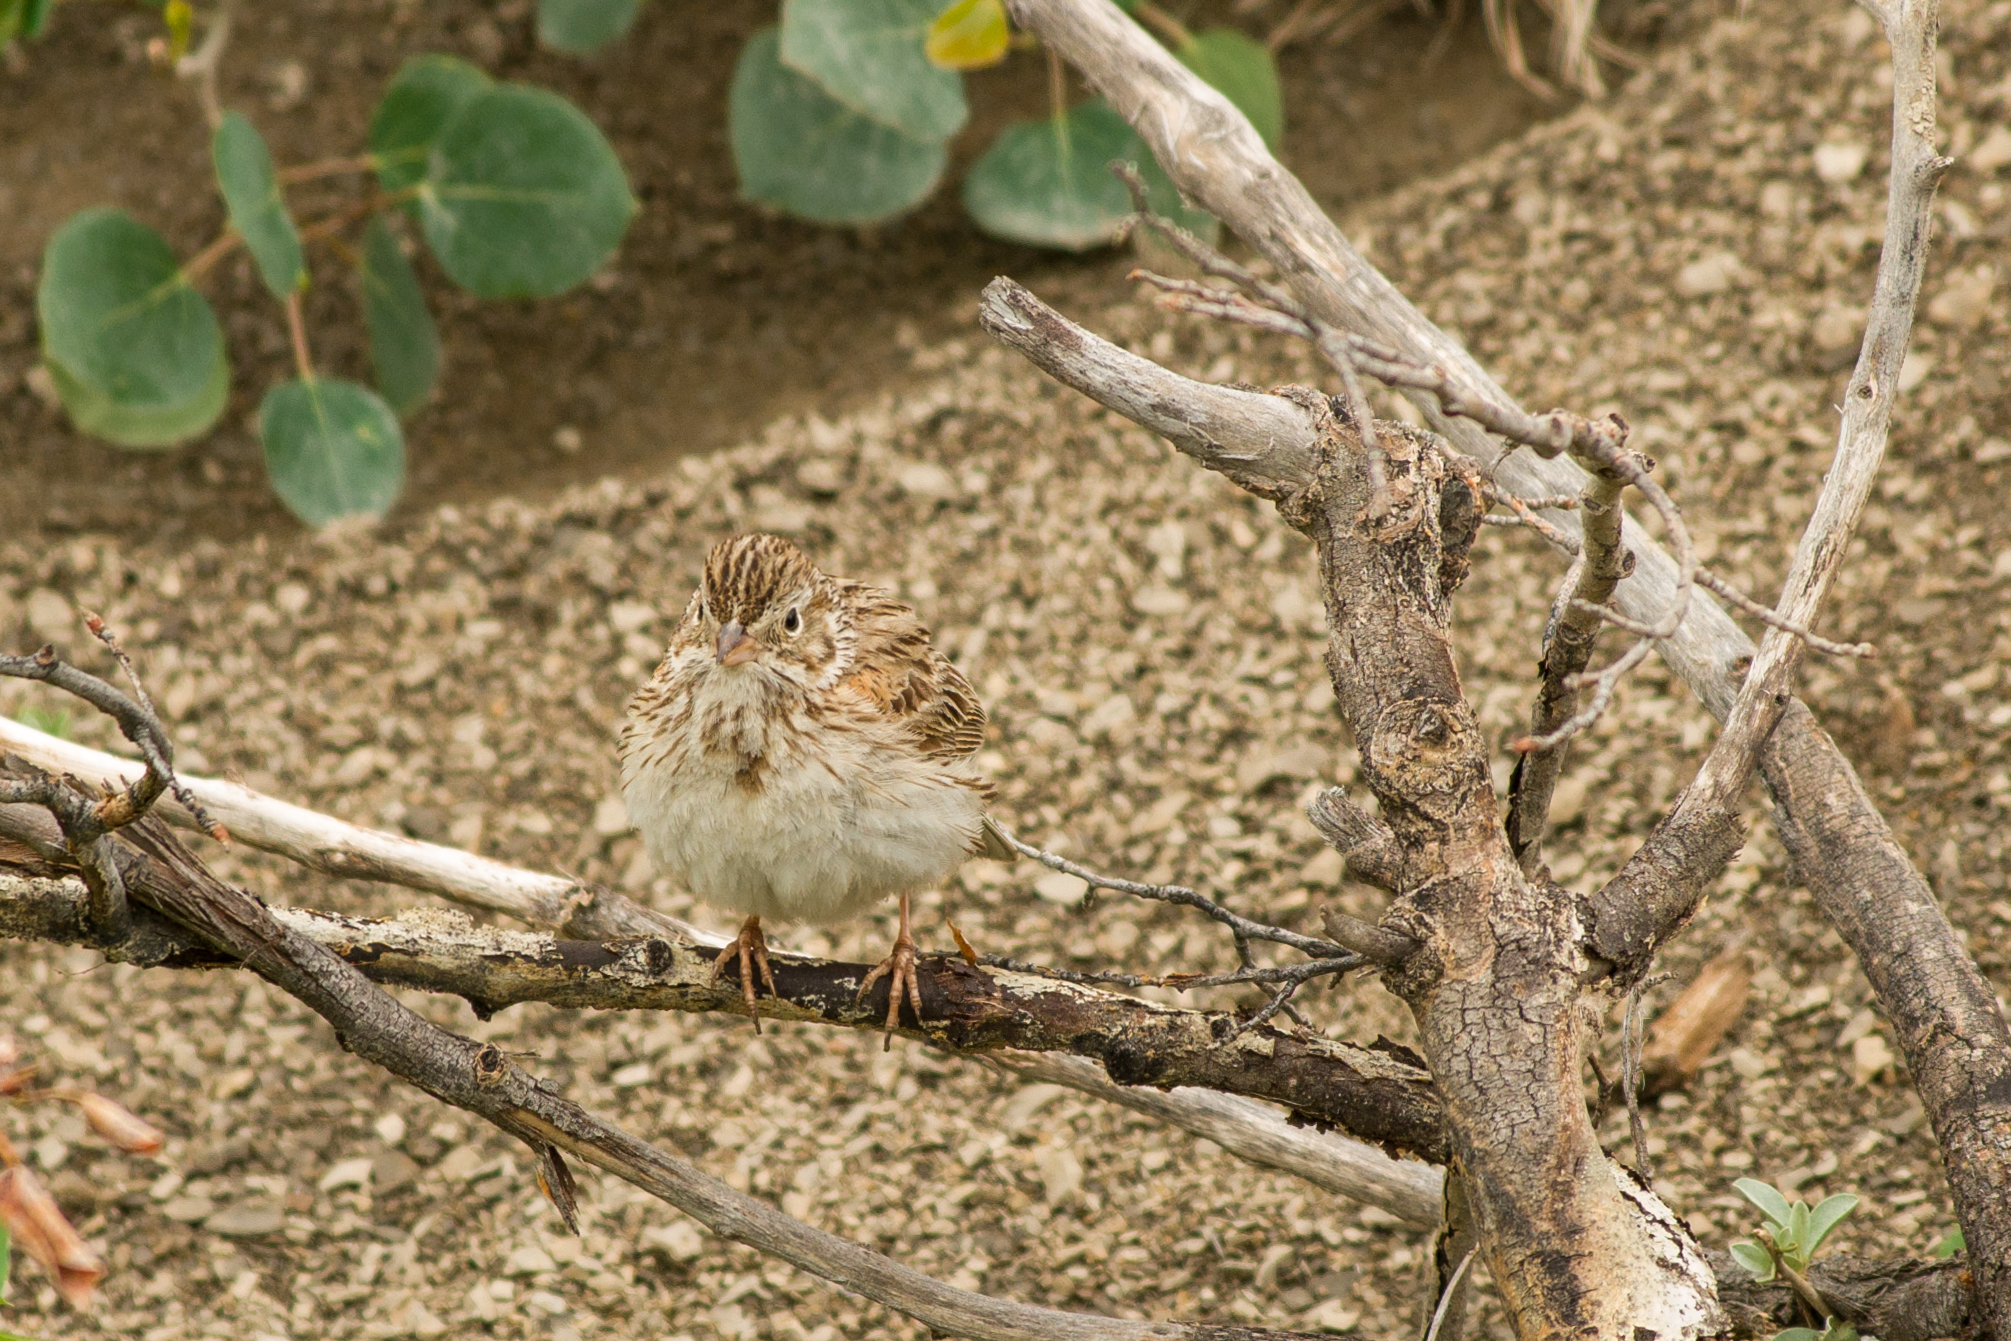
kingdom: Animalia
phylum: Chordata
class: Aves
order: Passeriformes
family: Passerellidae
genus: Pooecetes
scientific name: Pooecetes gramineus
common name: Vesper sparrow
